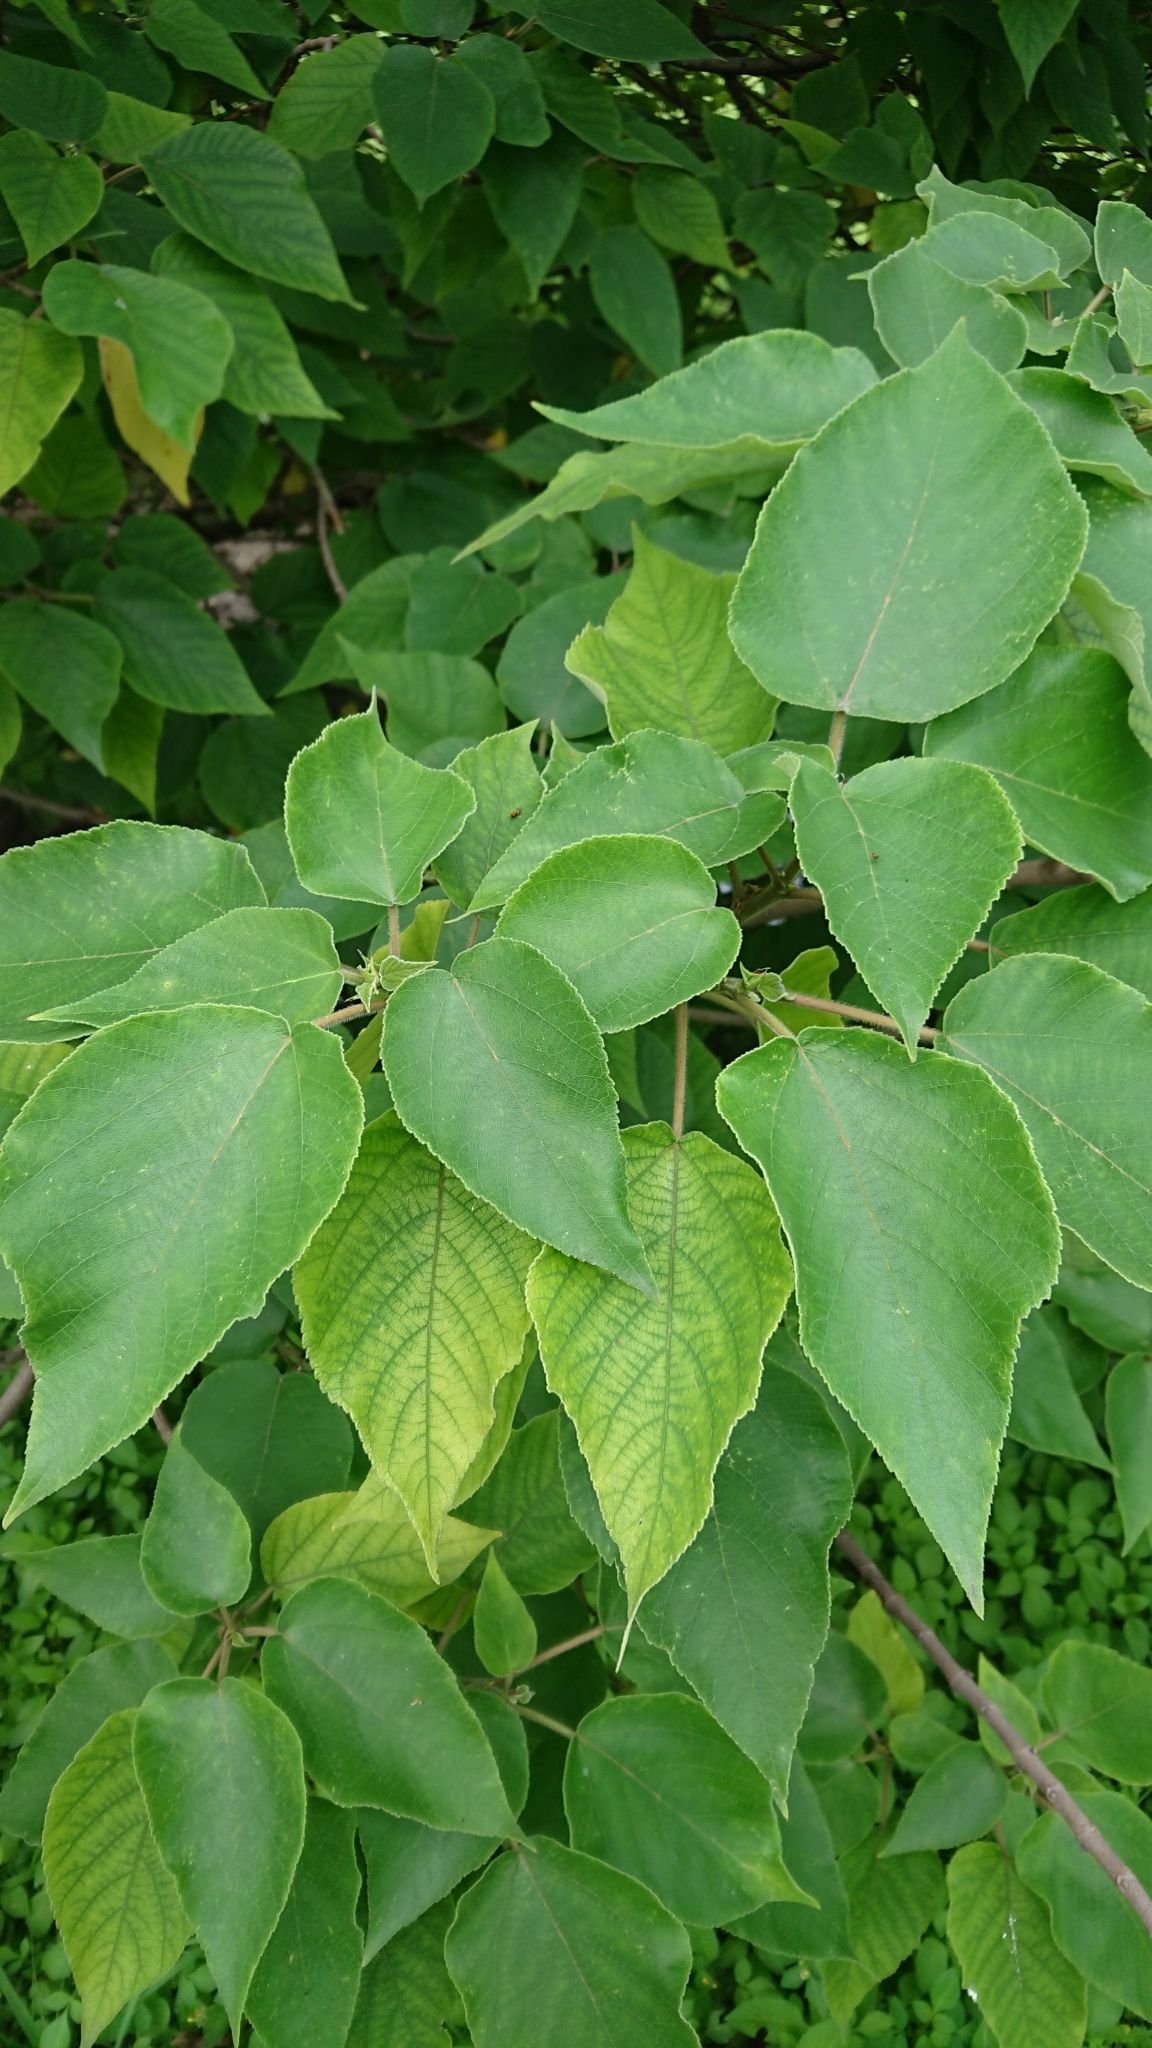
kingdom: Plantae
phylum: Tracheophyta
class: Magnoliopsida
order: Rosales
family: Moraceae
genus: Broussonetia
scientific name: Broussonetia papyrifera
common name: Paper mulberry
